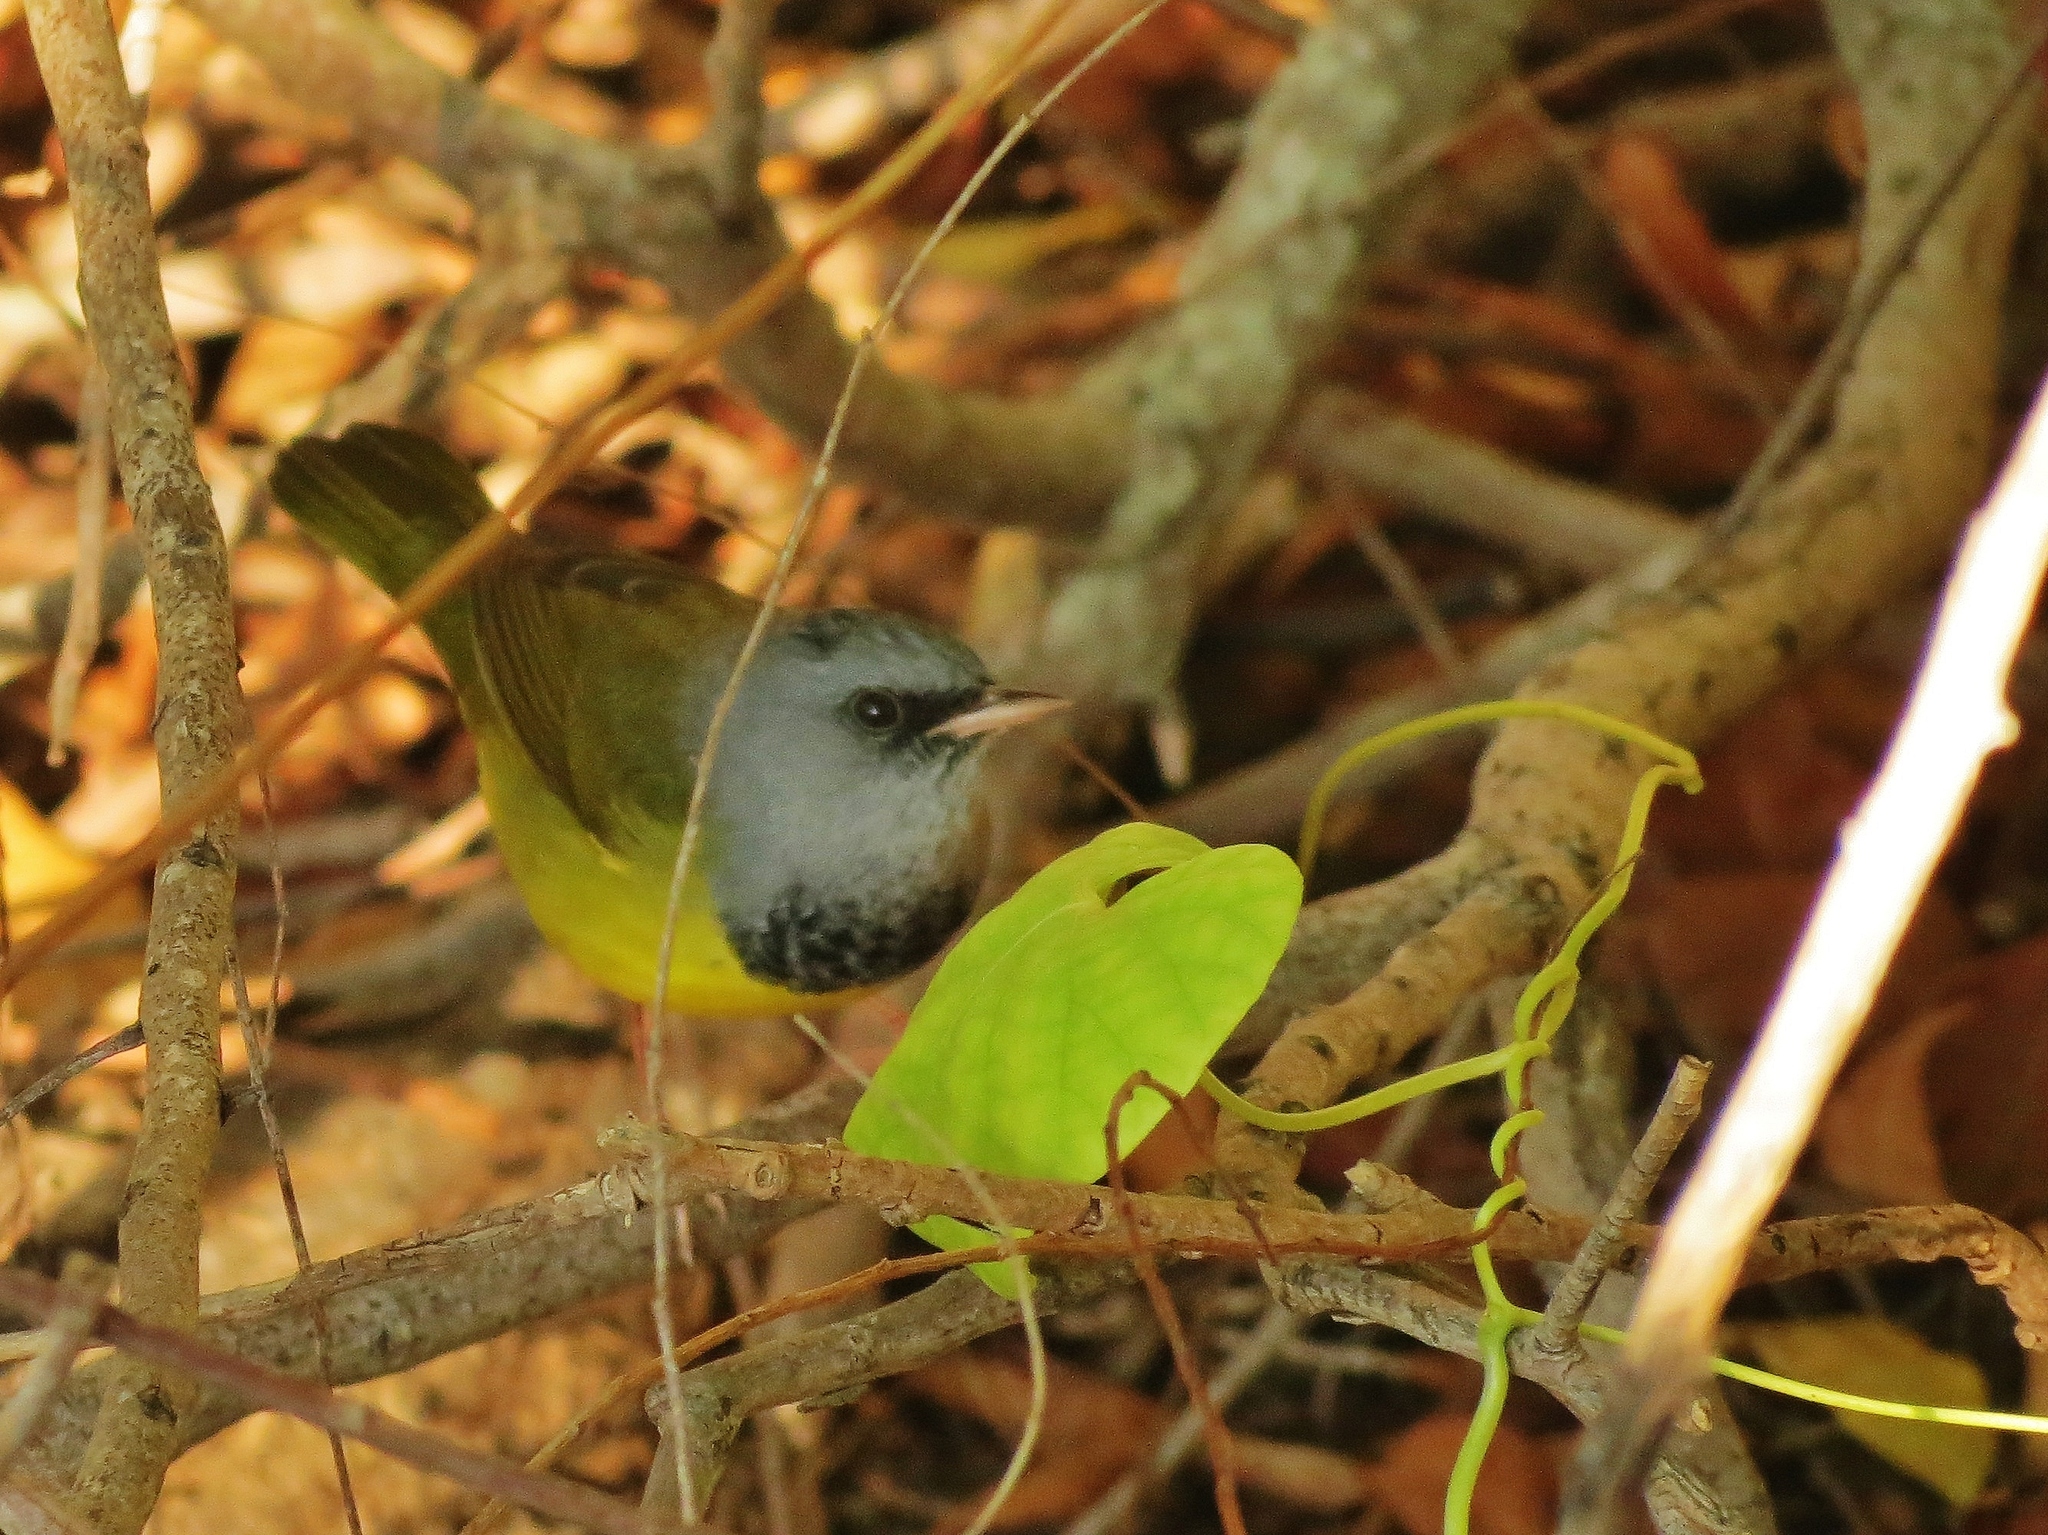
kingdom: Animalia
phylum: Chordata
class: Aves
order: Passeriformes
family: Parulidae
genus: Geothlypis
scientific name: Geothlypis philadelphia
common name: Mourning warbler
